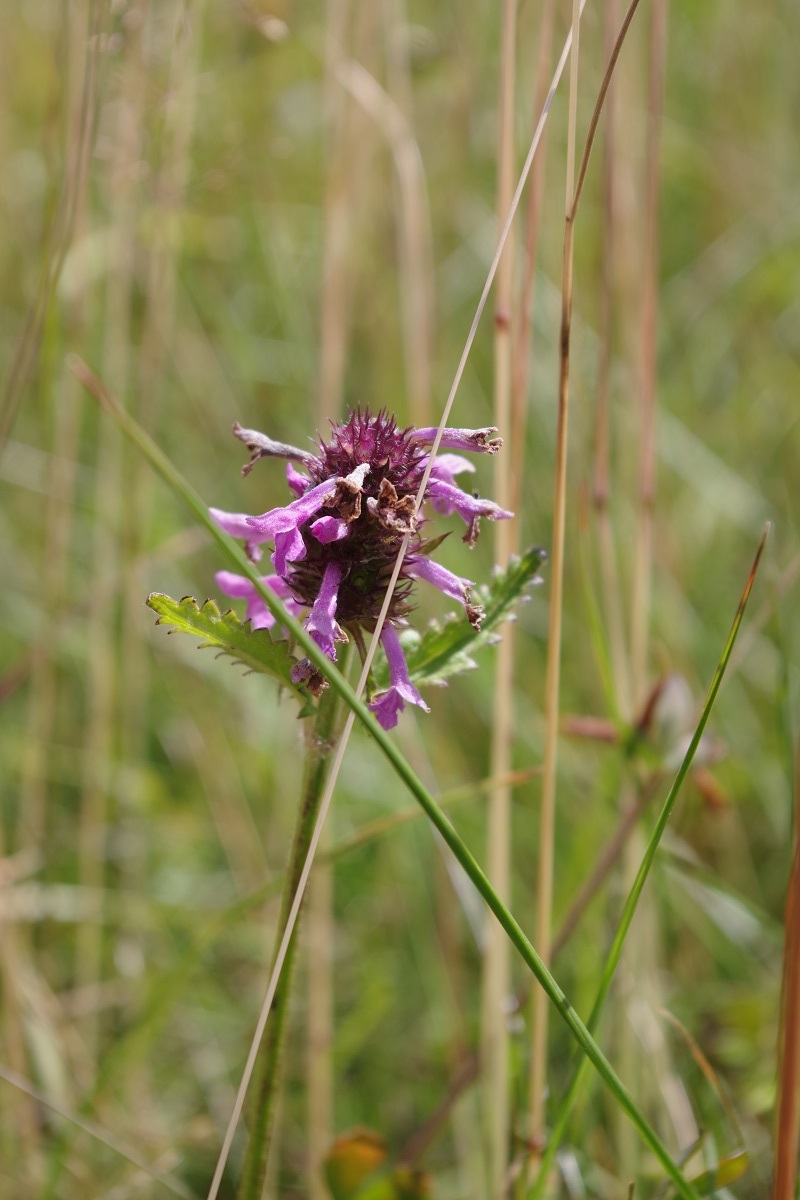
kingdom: Plantae
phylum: Tracheophyta
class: Magnoliopsida
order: Lamiales
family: Lamiaceae
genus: Betonica
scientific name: Betonica officinalis
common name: Bishop's-wort
